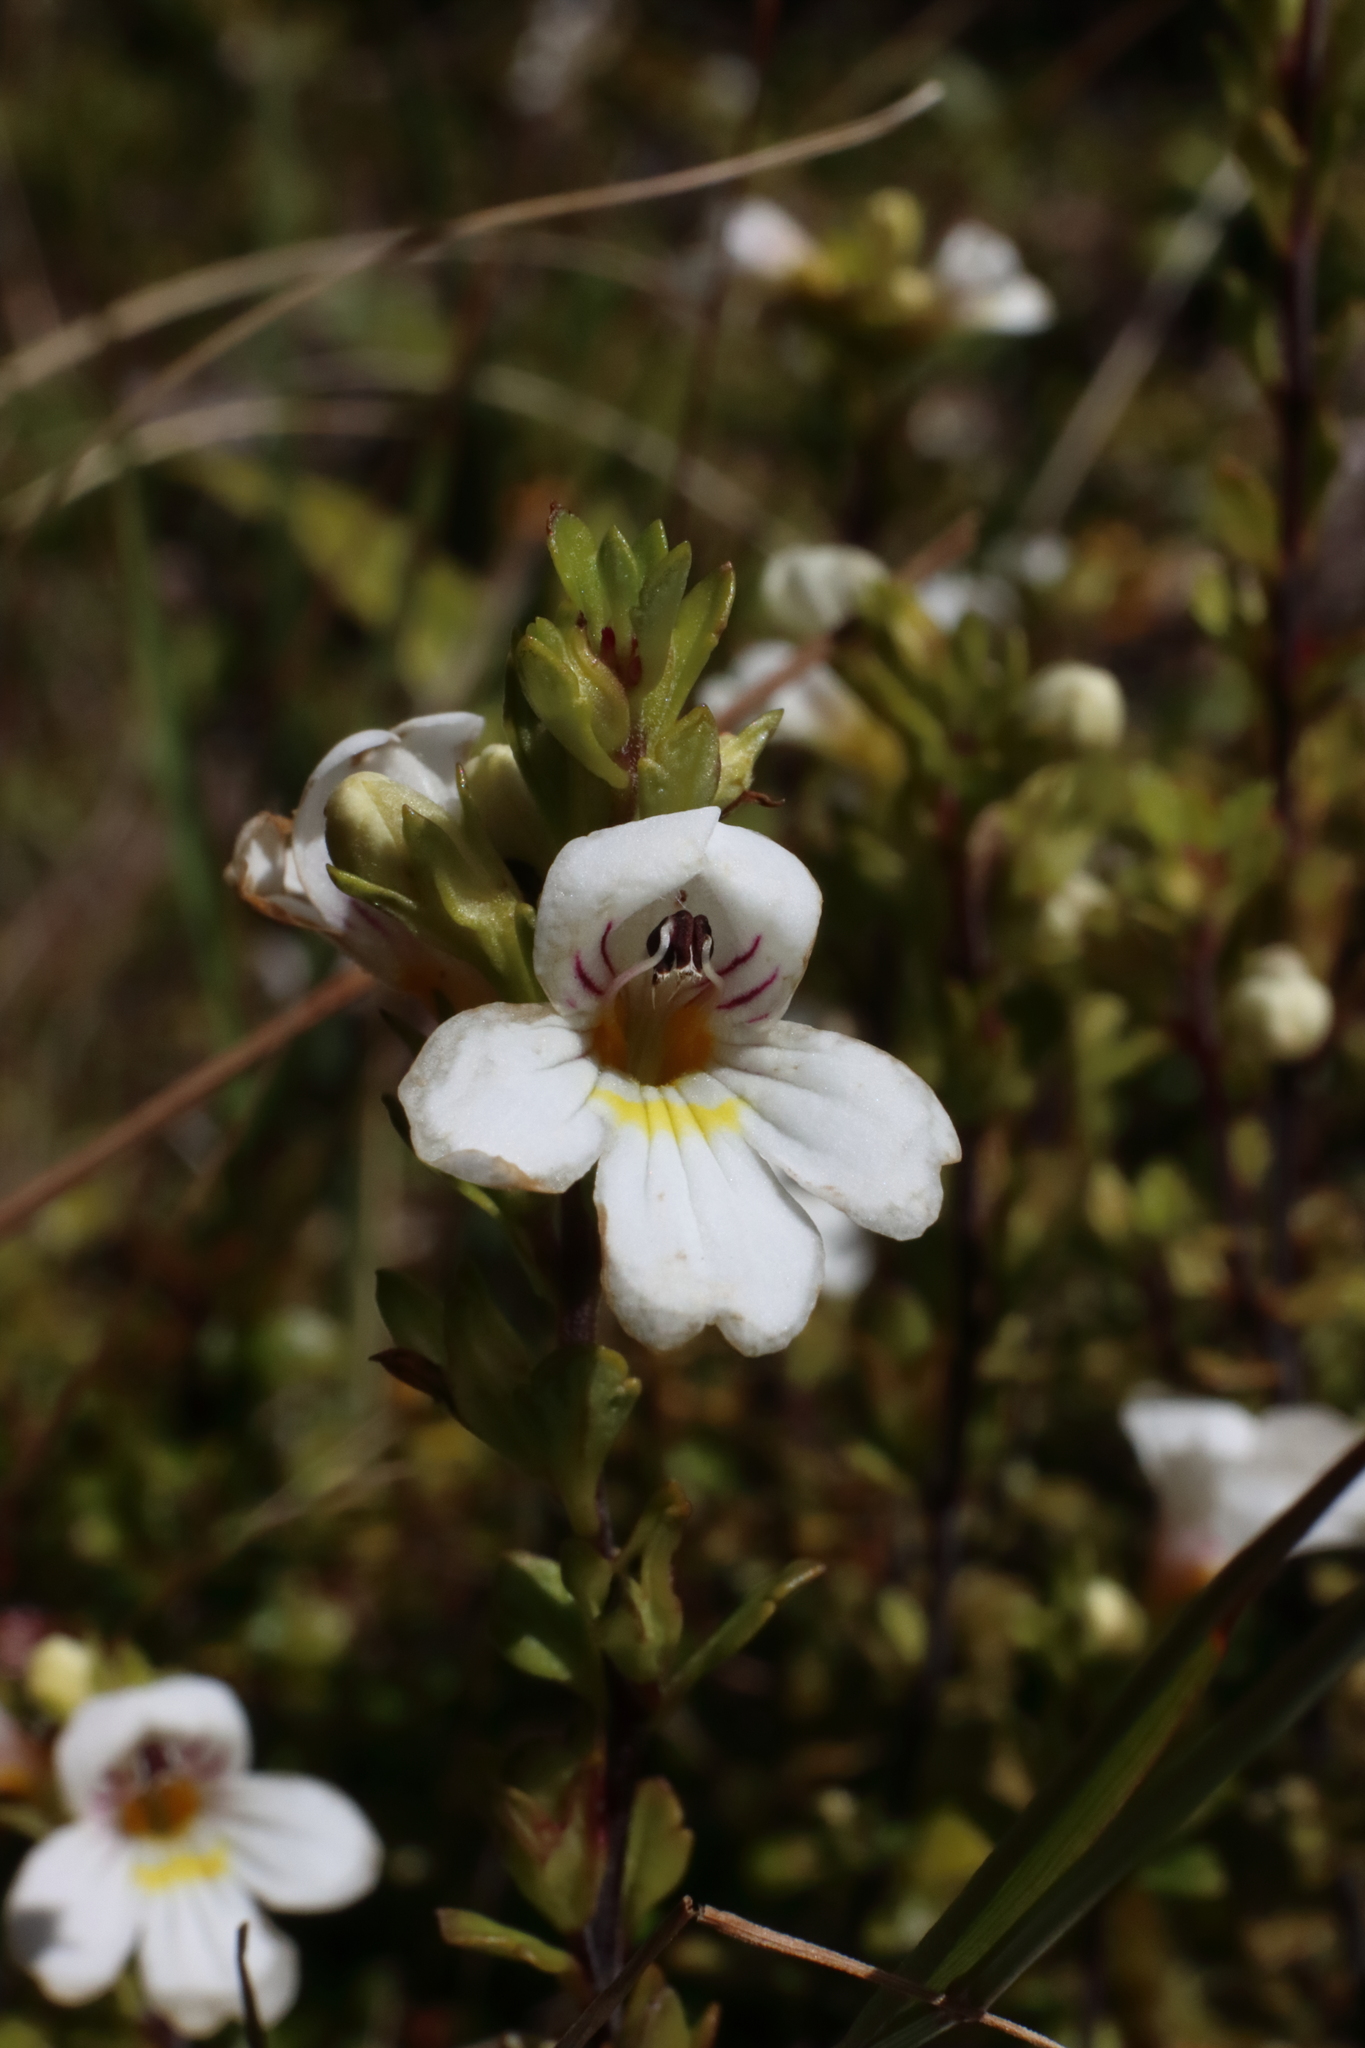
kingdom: Plantae
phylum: Tracheophyta
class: Magnoliopsida
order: Lamiales
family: Orobanchaceae
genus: Euphrasia
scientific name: Euphrasia cuneata
